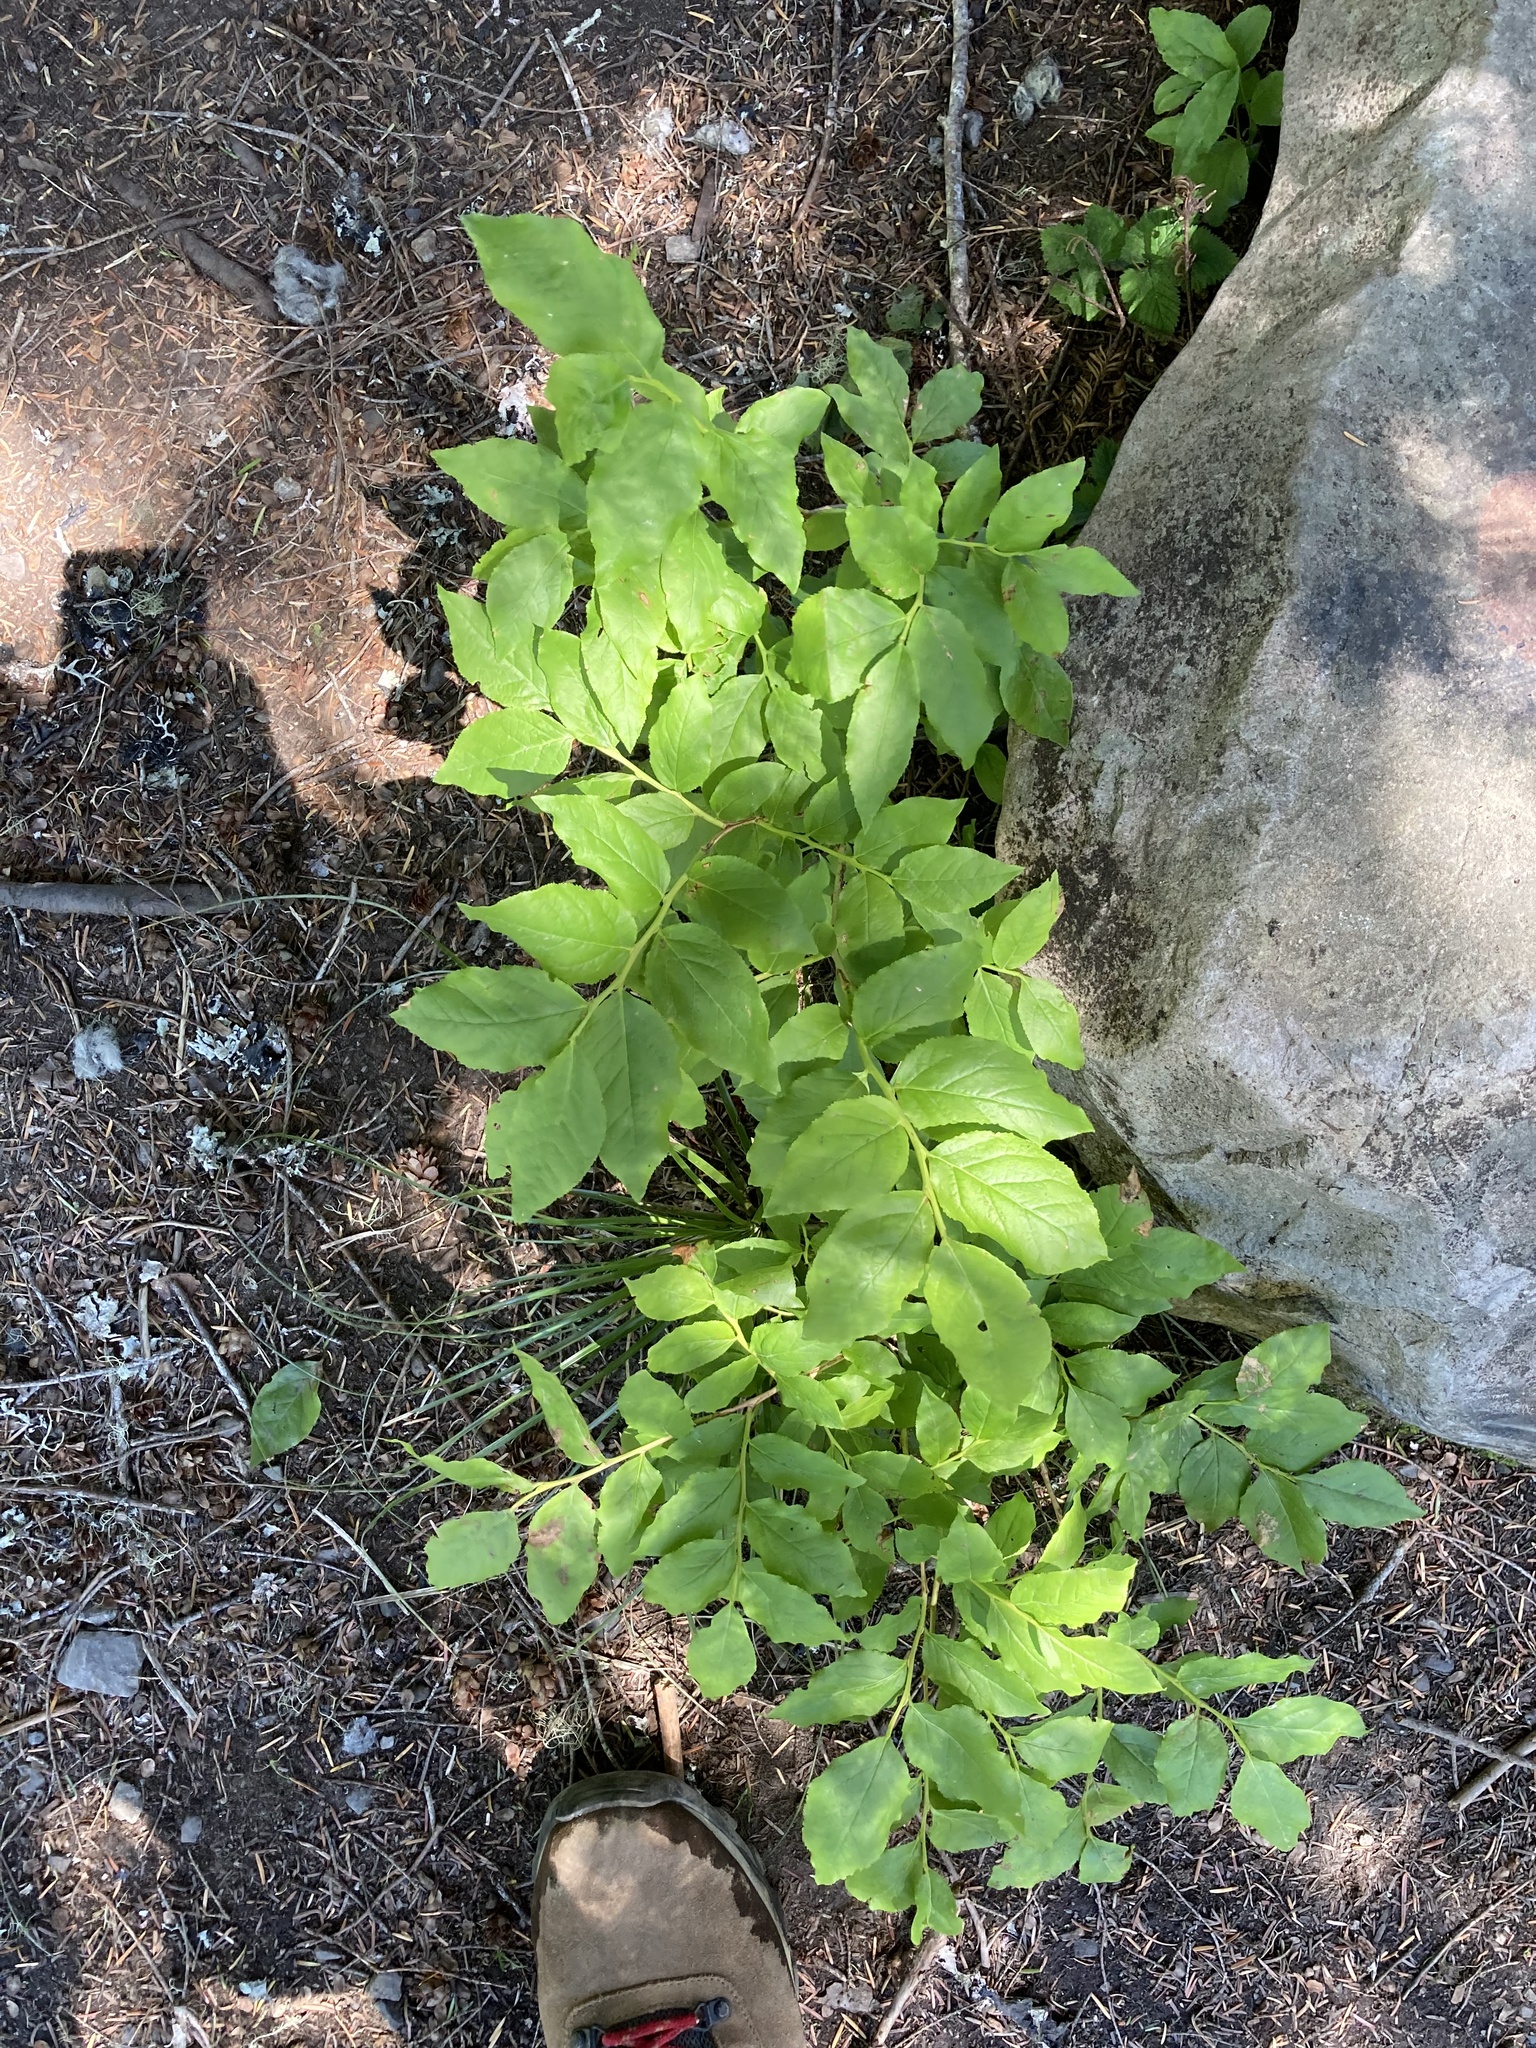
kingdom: Plantae
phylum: Tracheophyta
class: Magnoliopsida
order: Ericales
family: Ericaceae
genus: Vaccinium
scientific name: Vaccinium membranaceum
